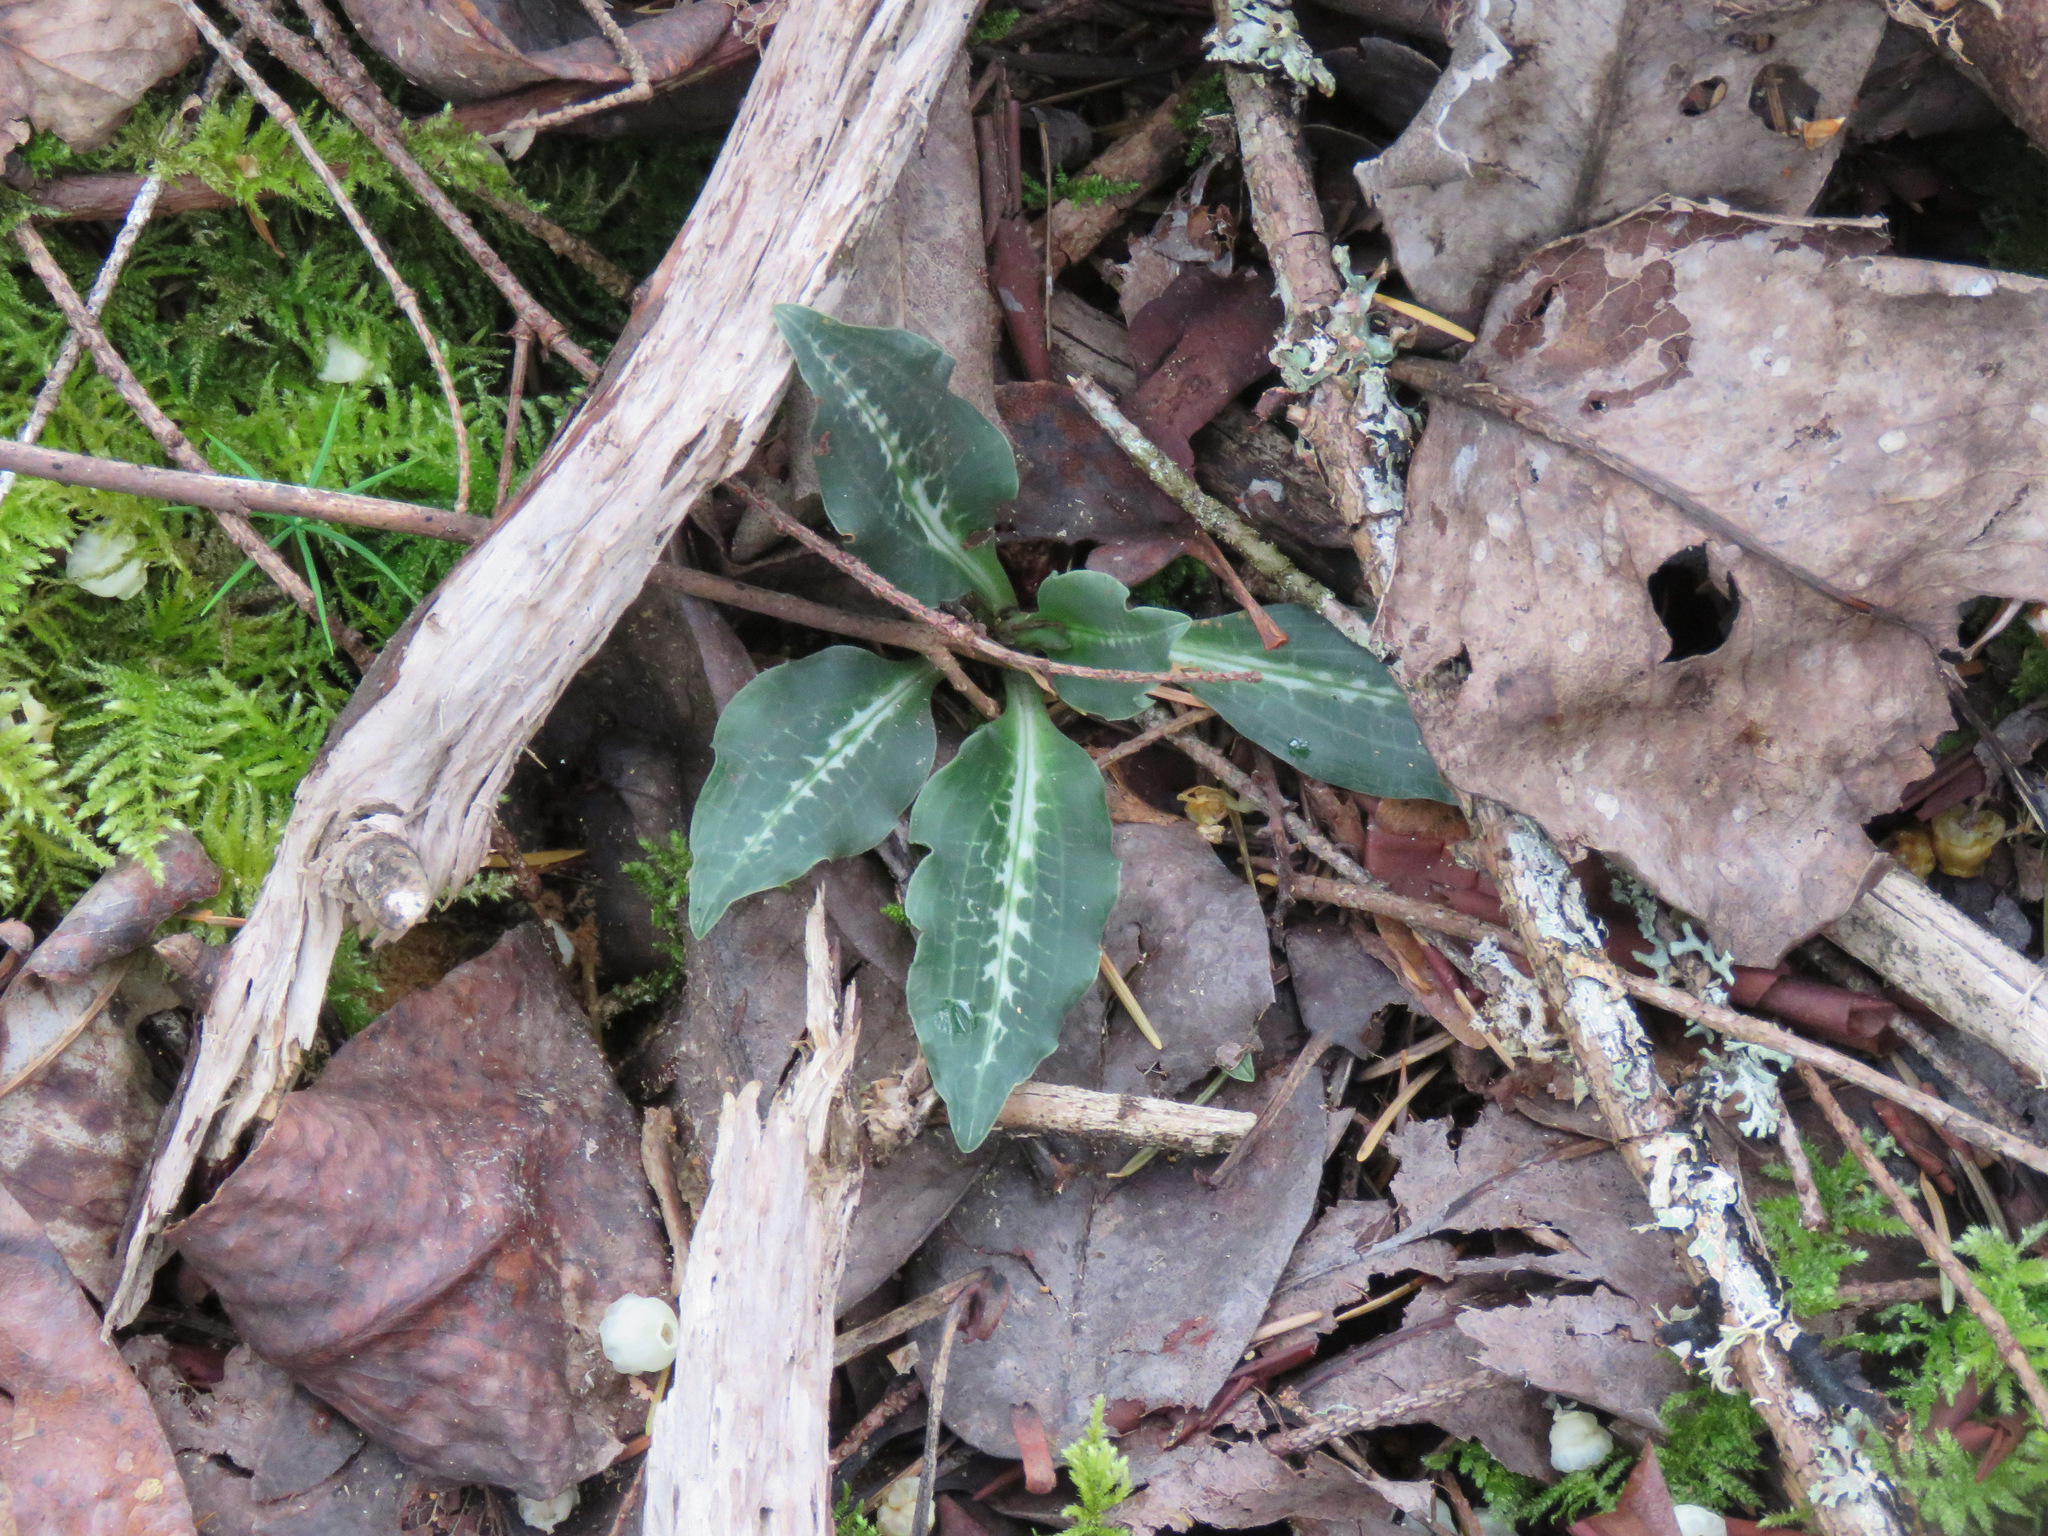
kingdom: Plantae
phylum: Tracheophyta
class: Liliopsida
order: Asparagales
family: Orchidaceae
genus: Goodyera
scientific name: Goodyera oblongifolia
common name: Giant rattlesnake-plantain
